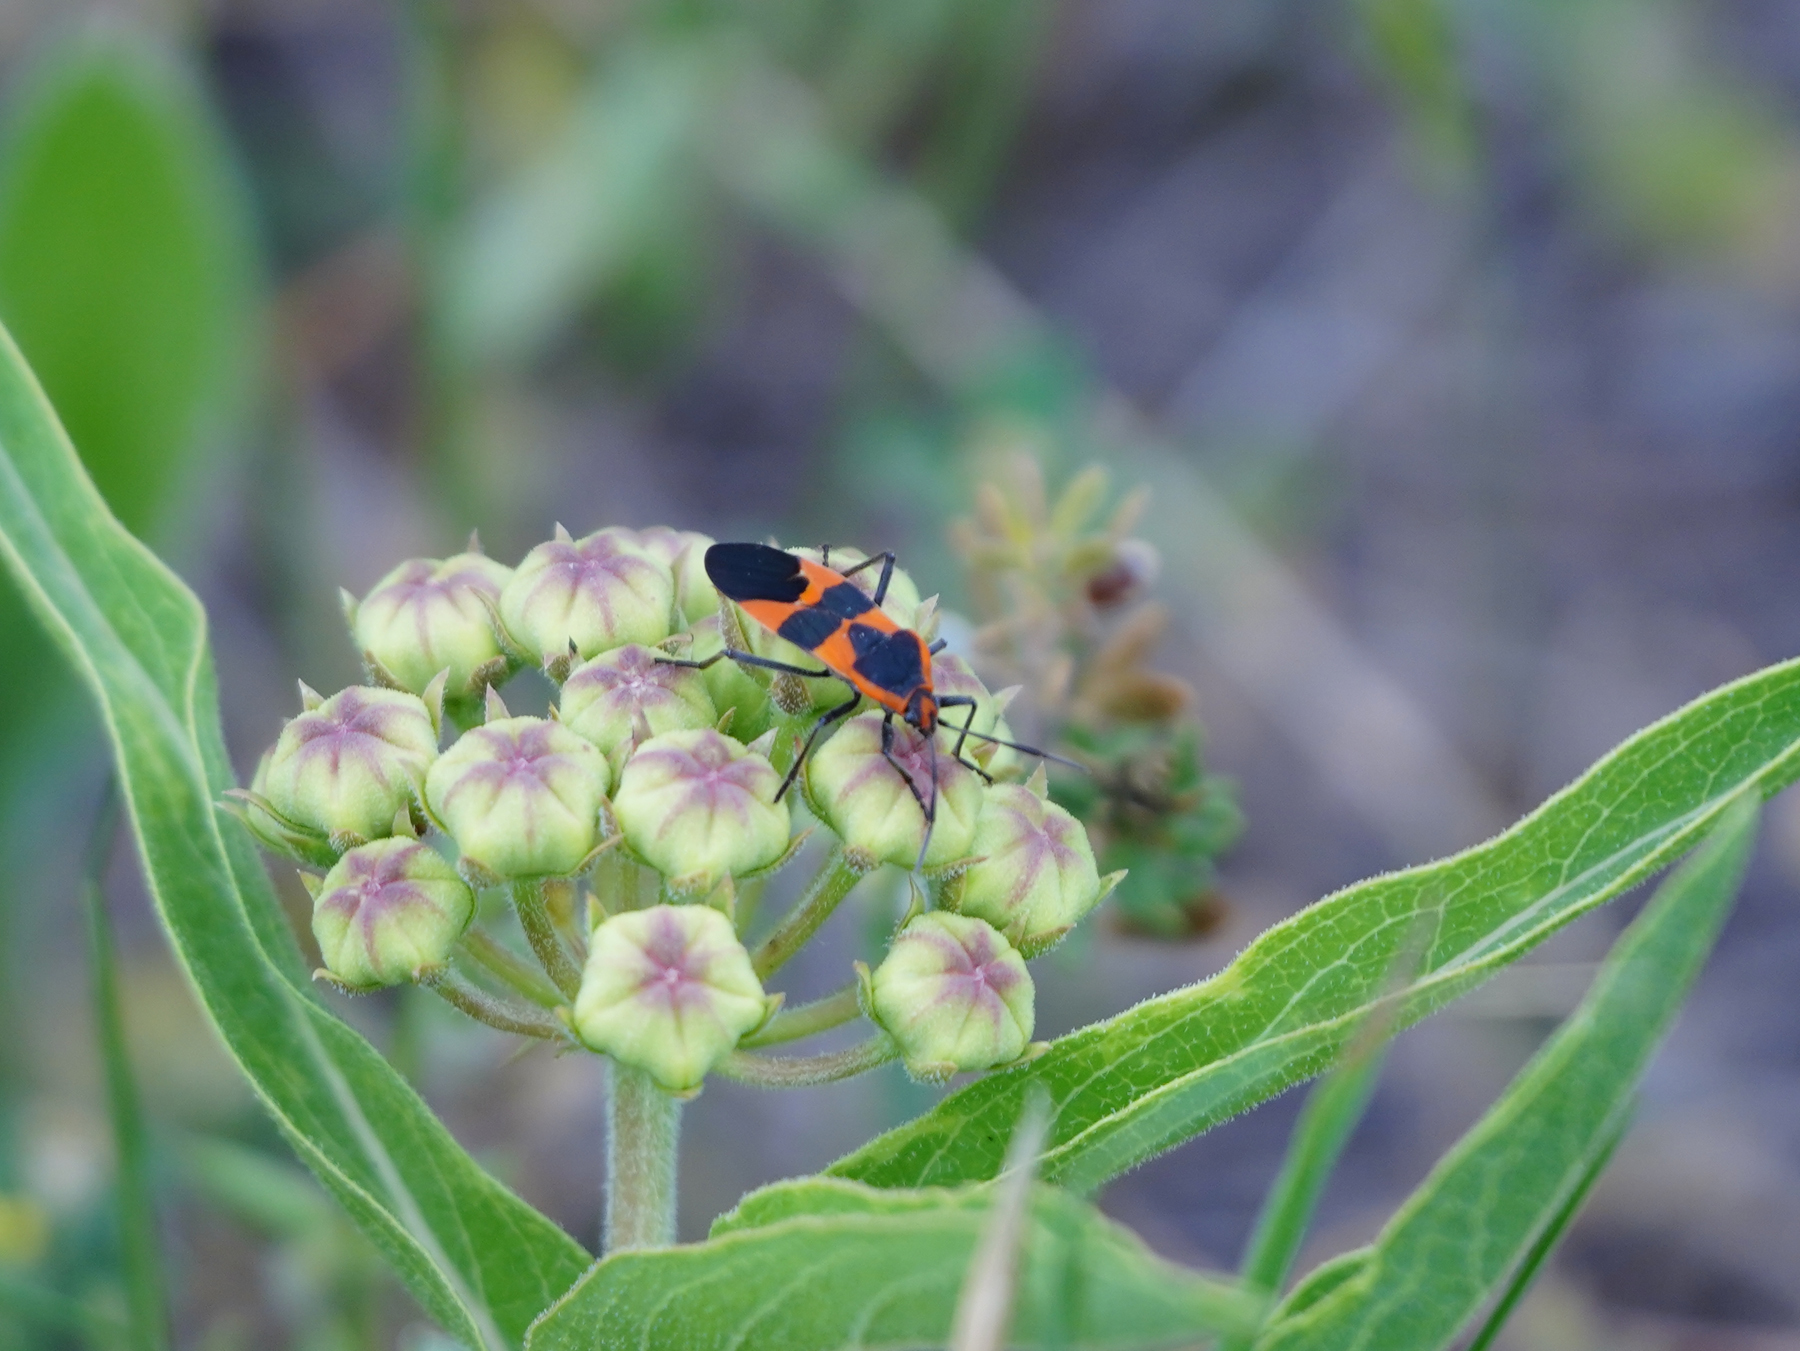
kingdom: Animalia
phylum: Arthropoda
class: Insecta
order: Hemiptera
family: Lygaeidae
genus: Oncopeltus
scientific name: Oncopeltus fasciatus
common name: Large milkweed bug
